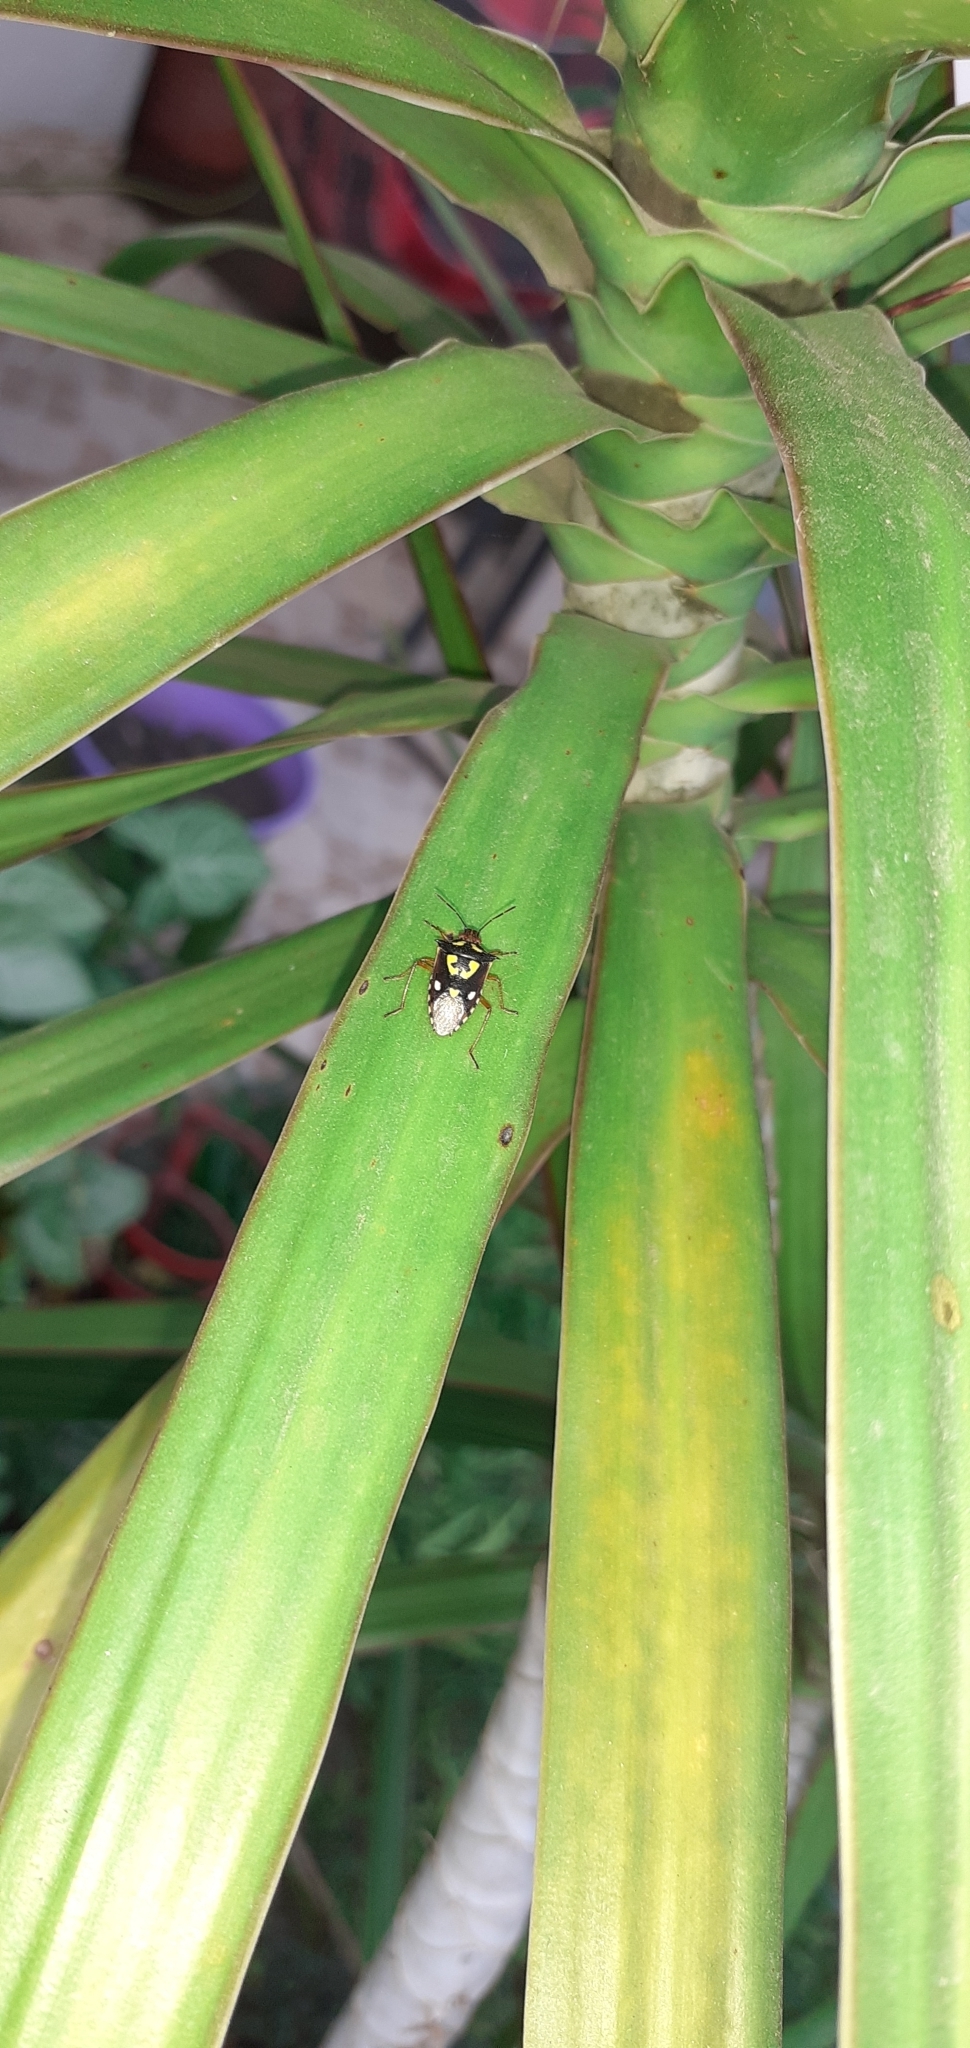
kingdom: Animalia
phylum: Arthropoda
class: Insecta
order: Hemiptera
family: Pentatomidae
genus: Oebalus
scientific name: Oebalus poecilus
